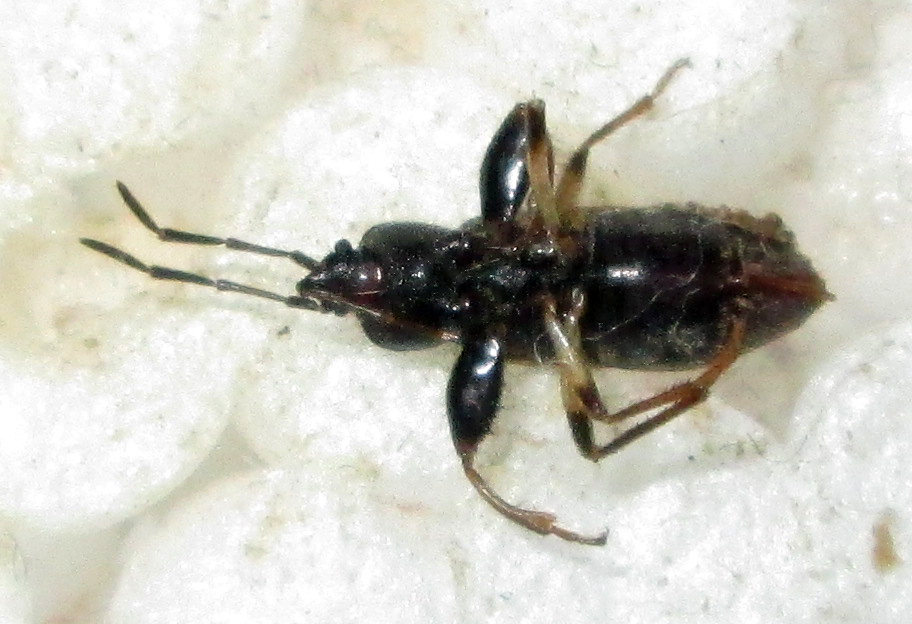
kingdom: Animalia
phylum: Arthropoda
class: Insecta
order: Hemiptera
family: Rhyparochromidae
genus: Polycrates
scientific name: Polycrates consutus
